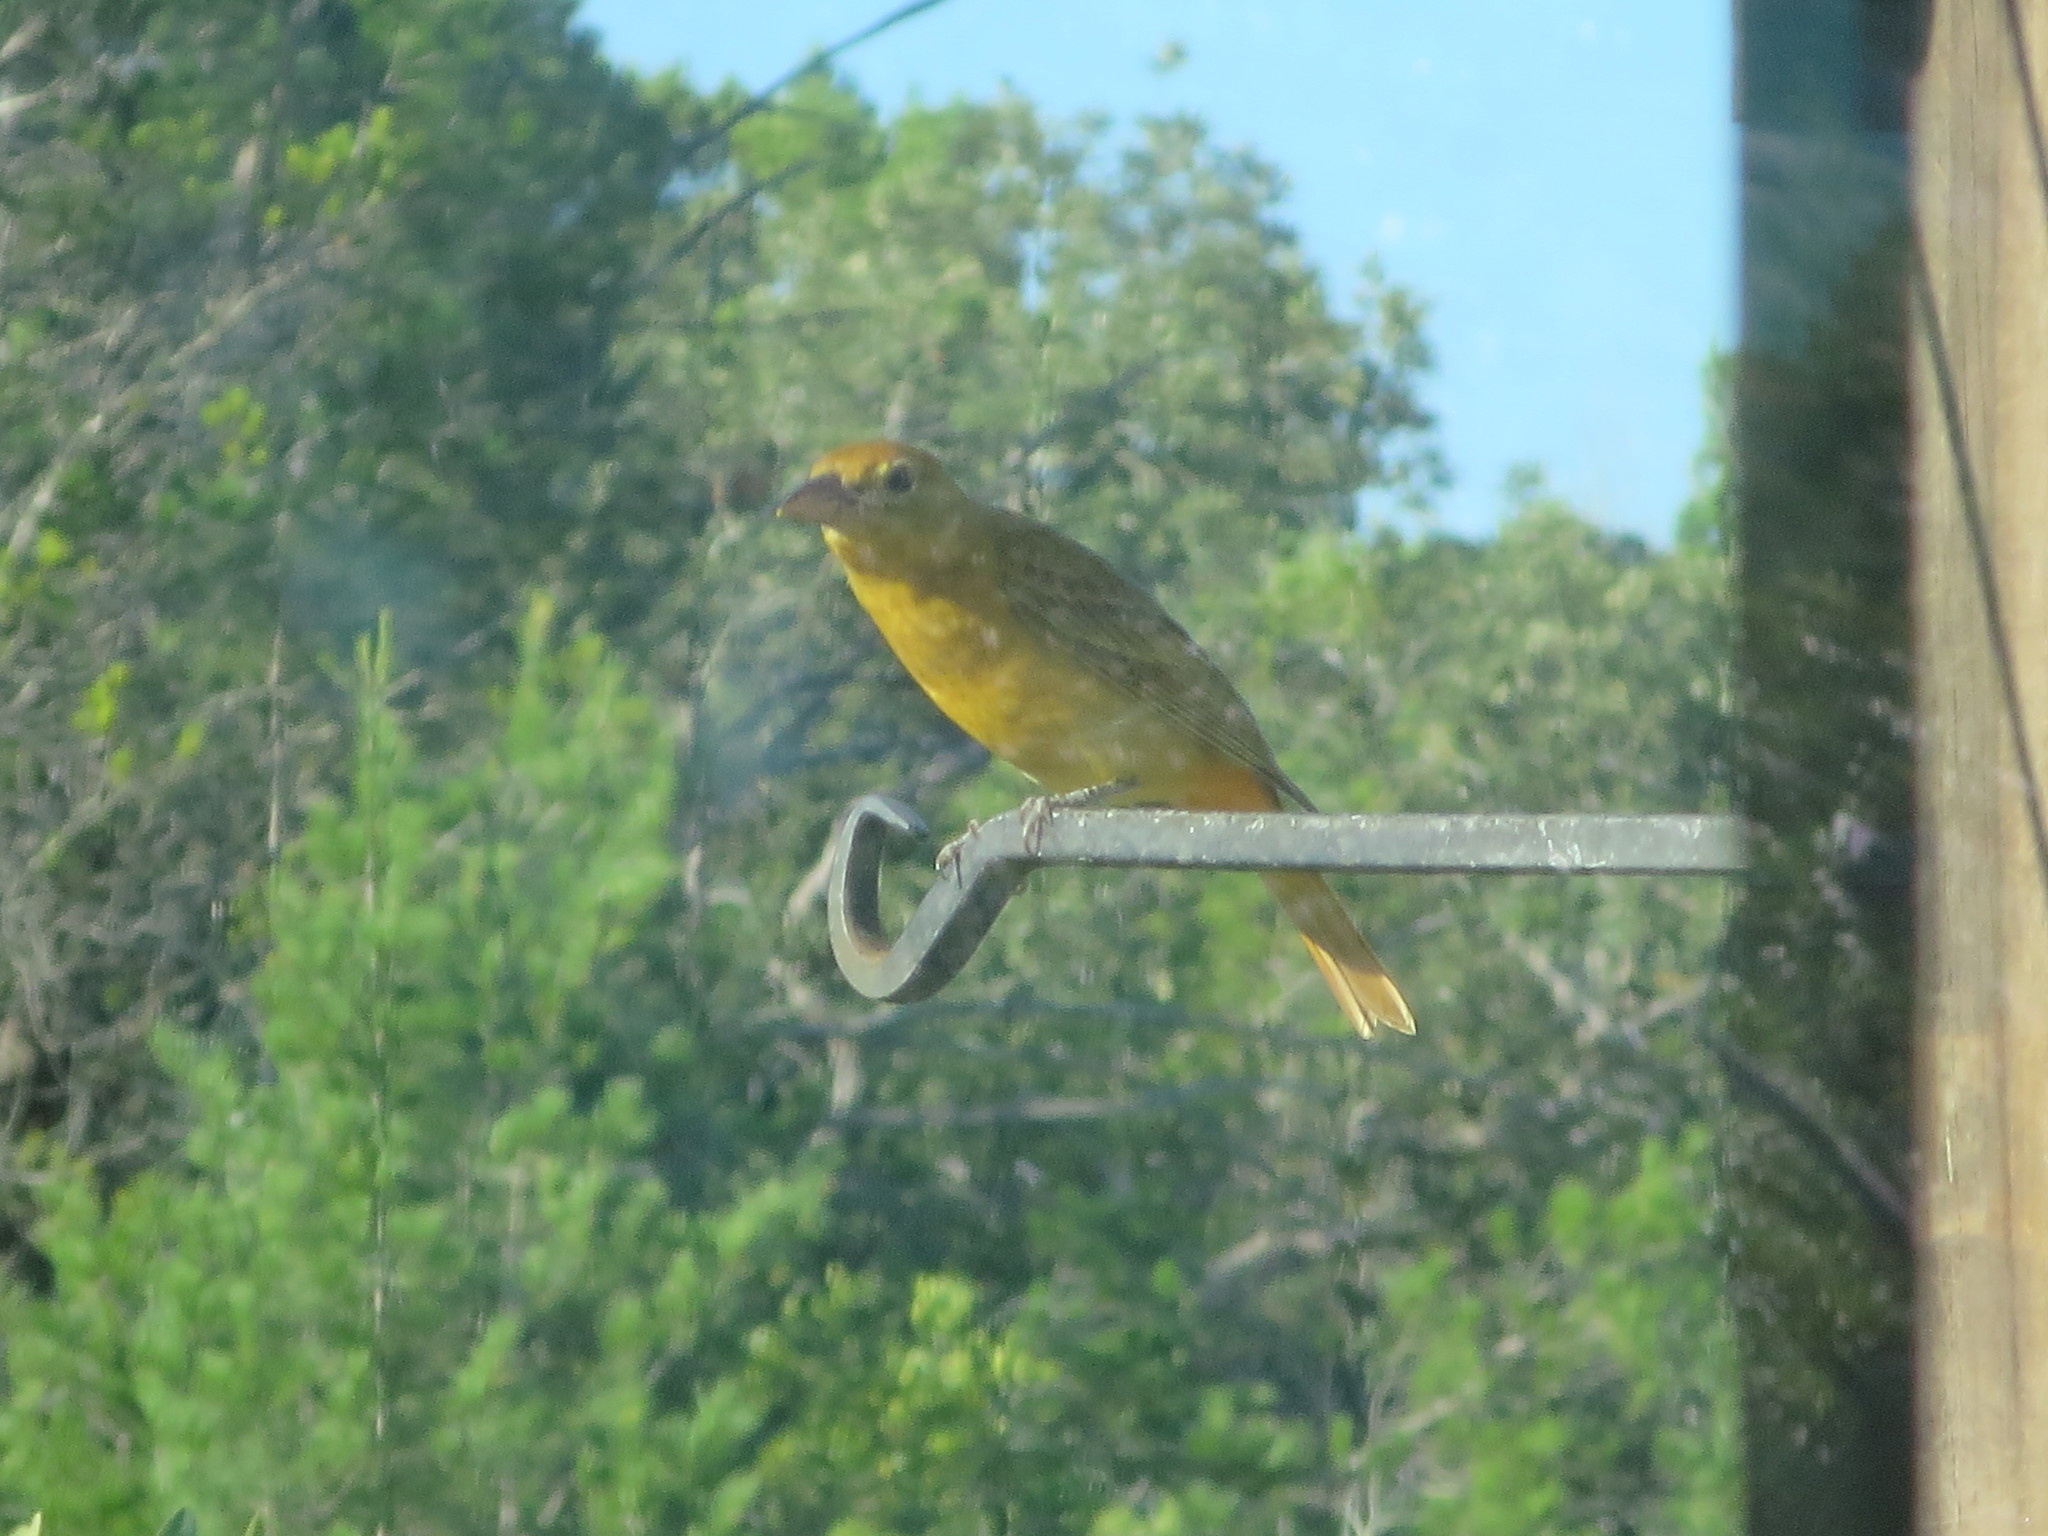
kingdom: Animalia
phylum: Chordata
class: Aves
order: Passeriformes
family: Cardinalidae
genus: Piranga
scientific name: Piranga rubra
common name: Summer tanager
